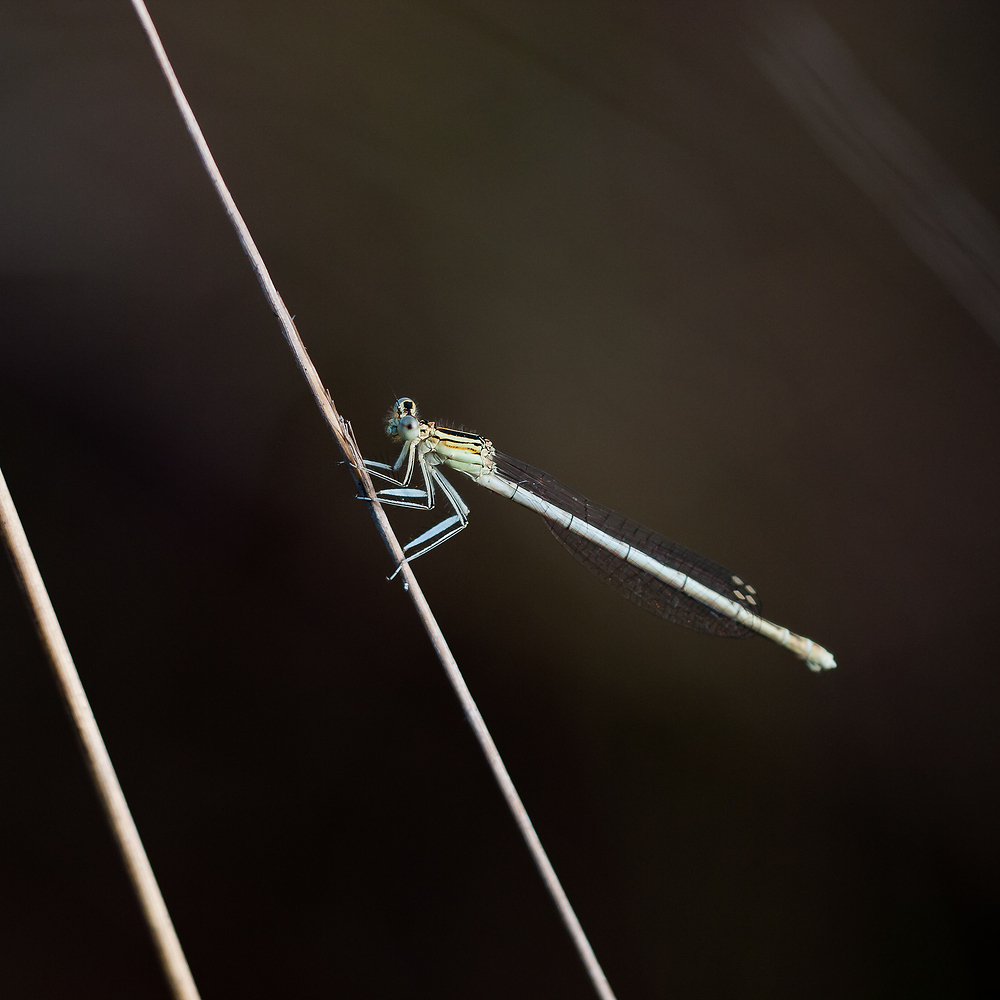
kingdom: Animalia
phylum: Arthropoda
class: Insecta
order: Odonata
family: Platycnemididae
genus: Platycnemis
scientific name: Platycnemis pennipes
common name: White-legged damselfly
